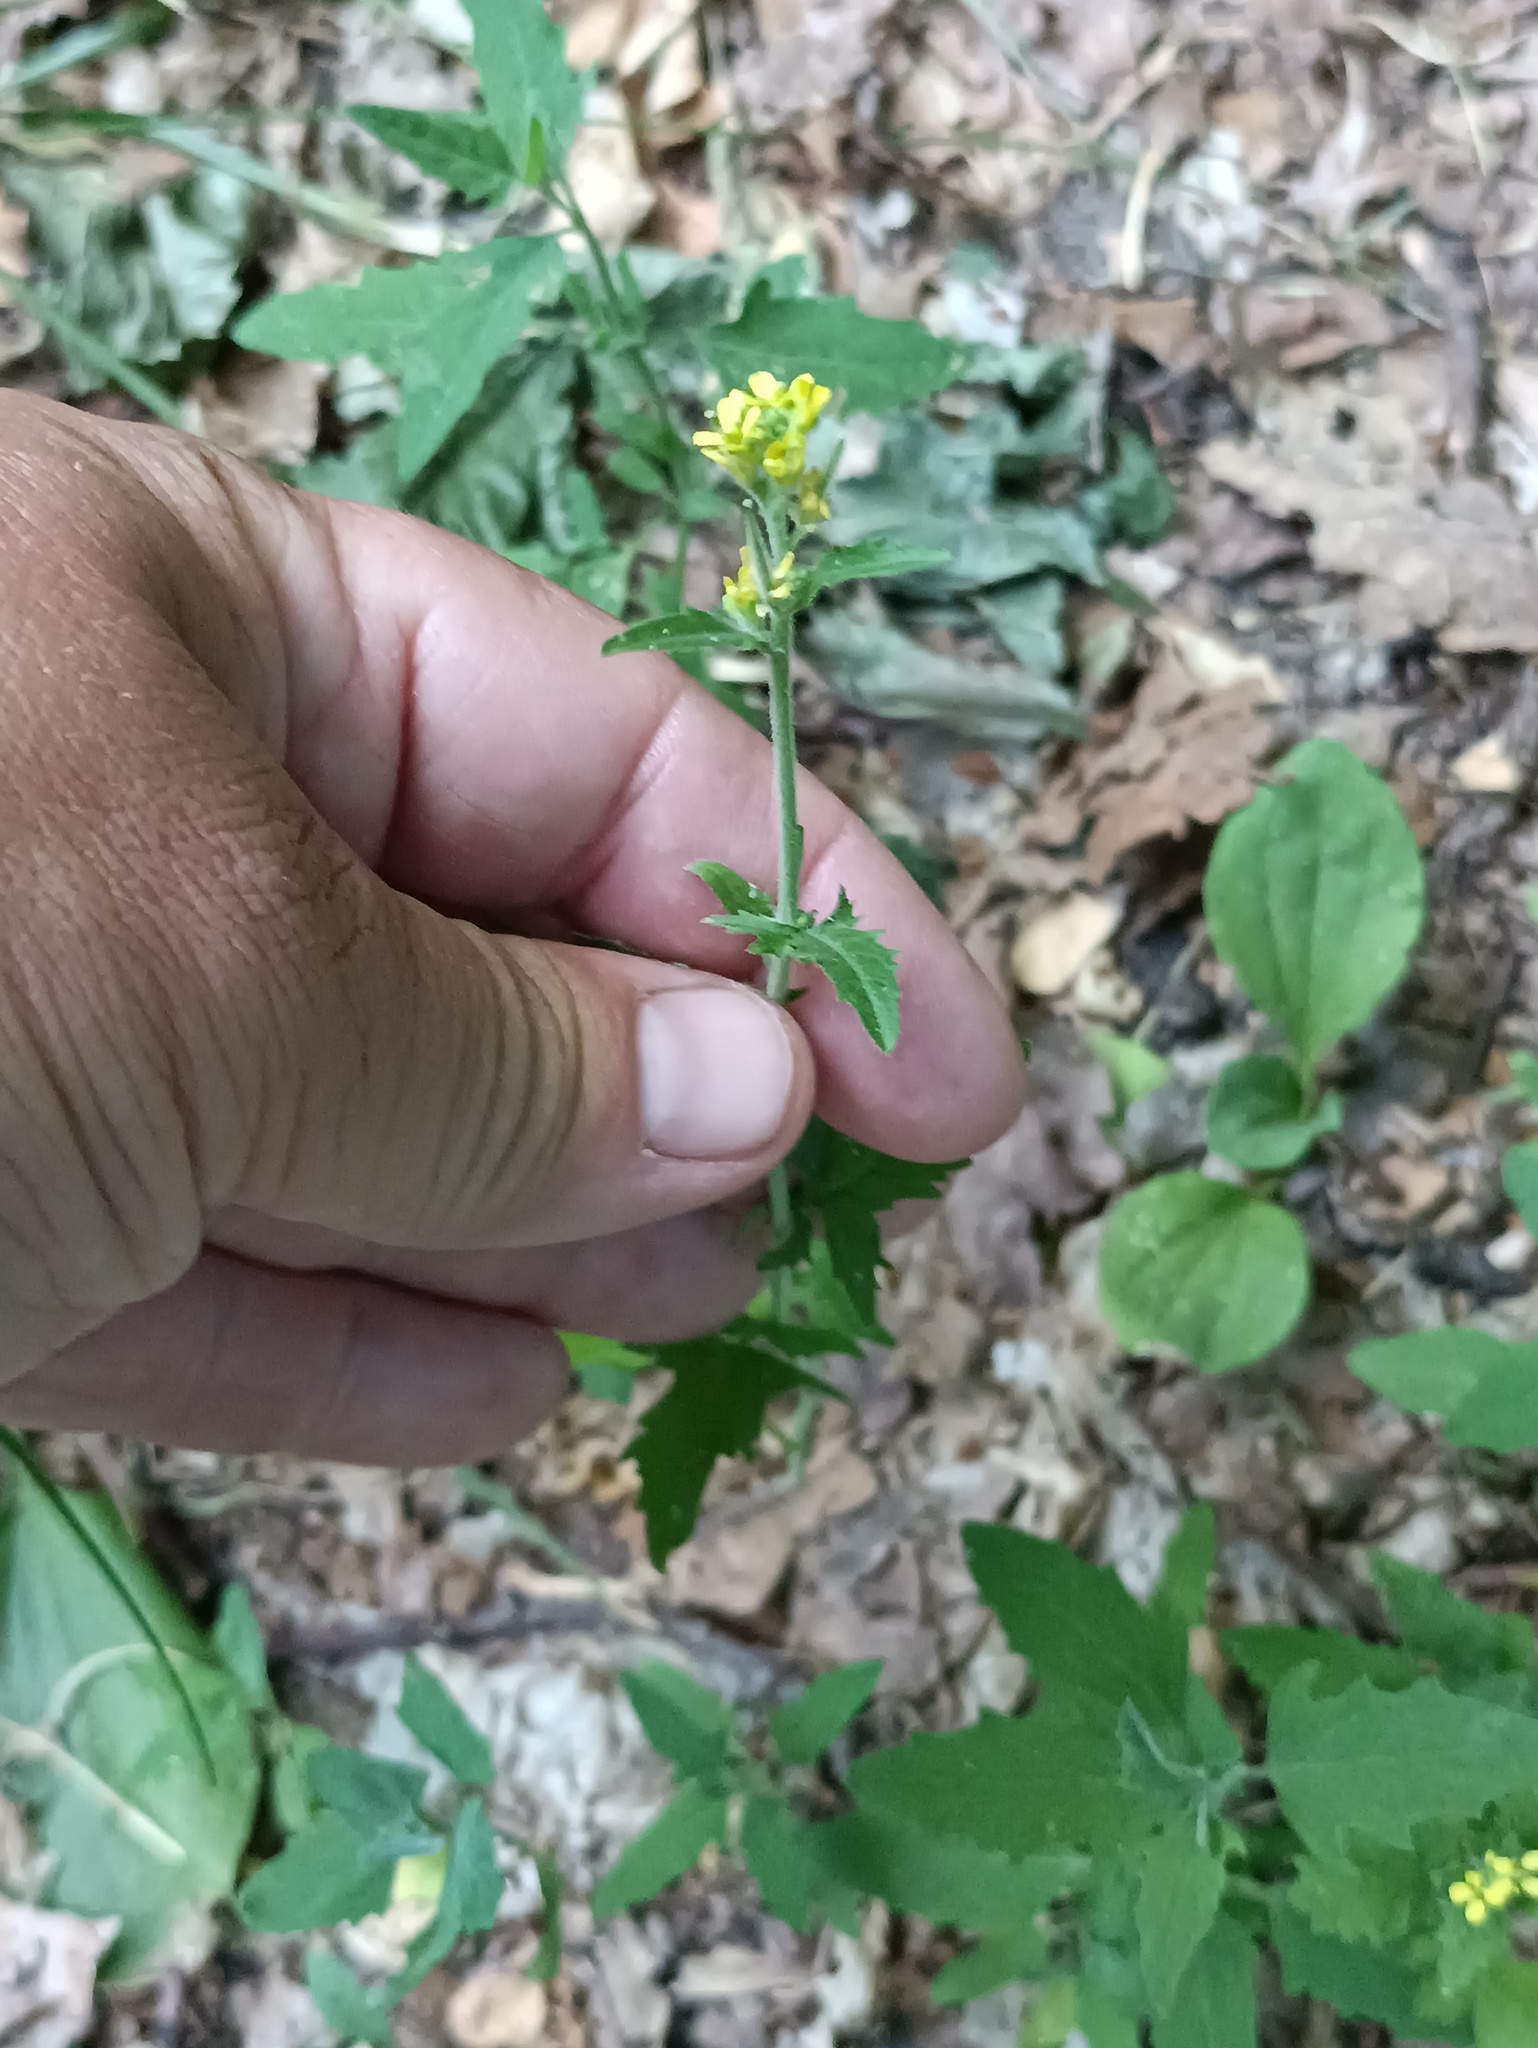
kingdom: Plantae
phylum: Tracheophyta
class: Magnoliopsida
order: Brassicales
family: Brassicaceae
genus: Sisymbrium
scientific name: Sisymbrium officinale
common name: Hedge mustard
